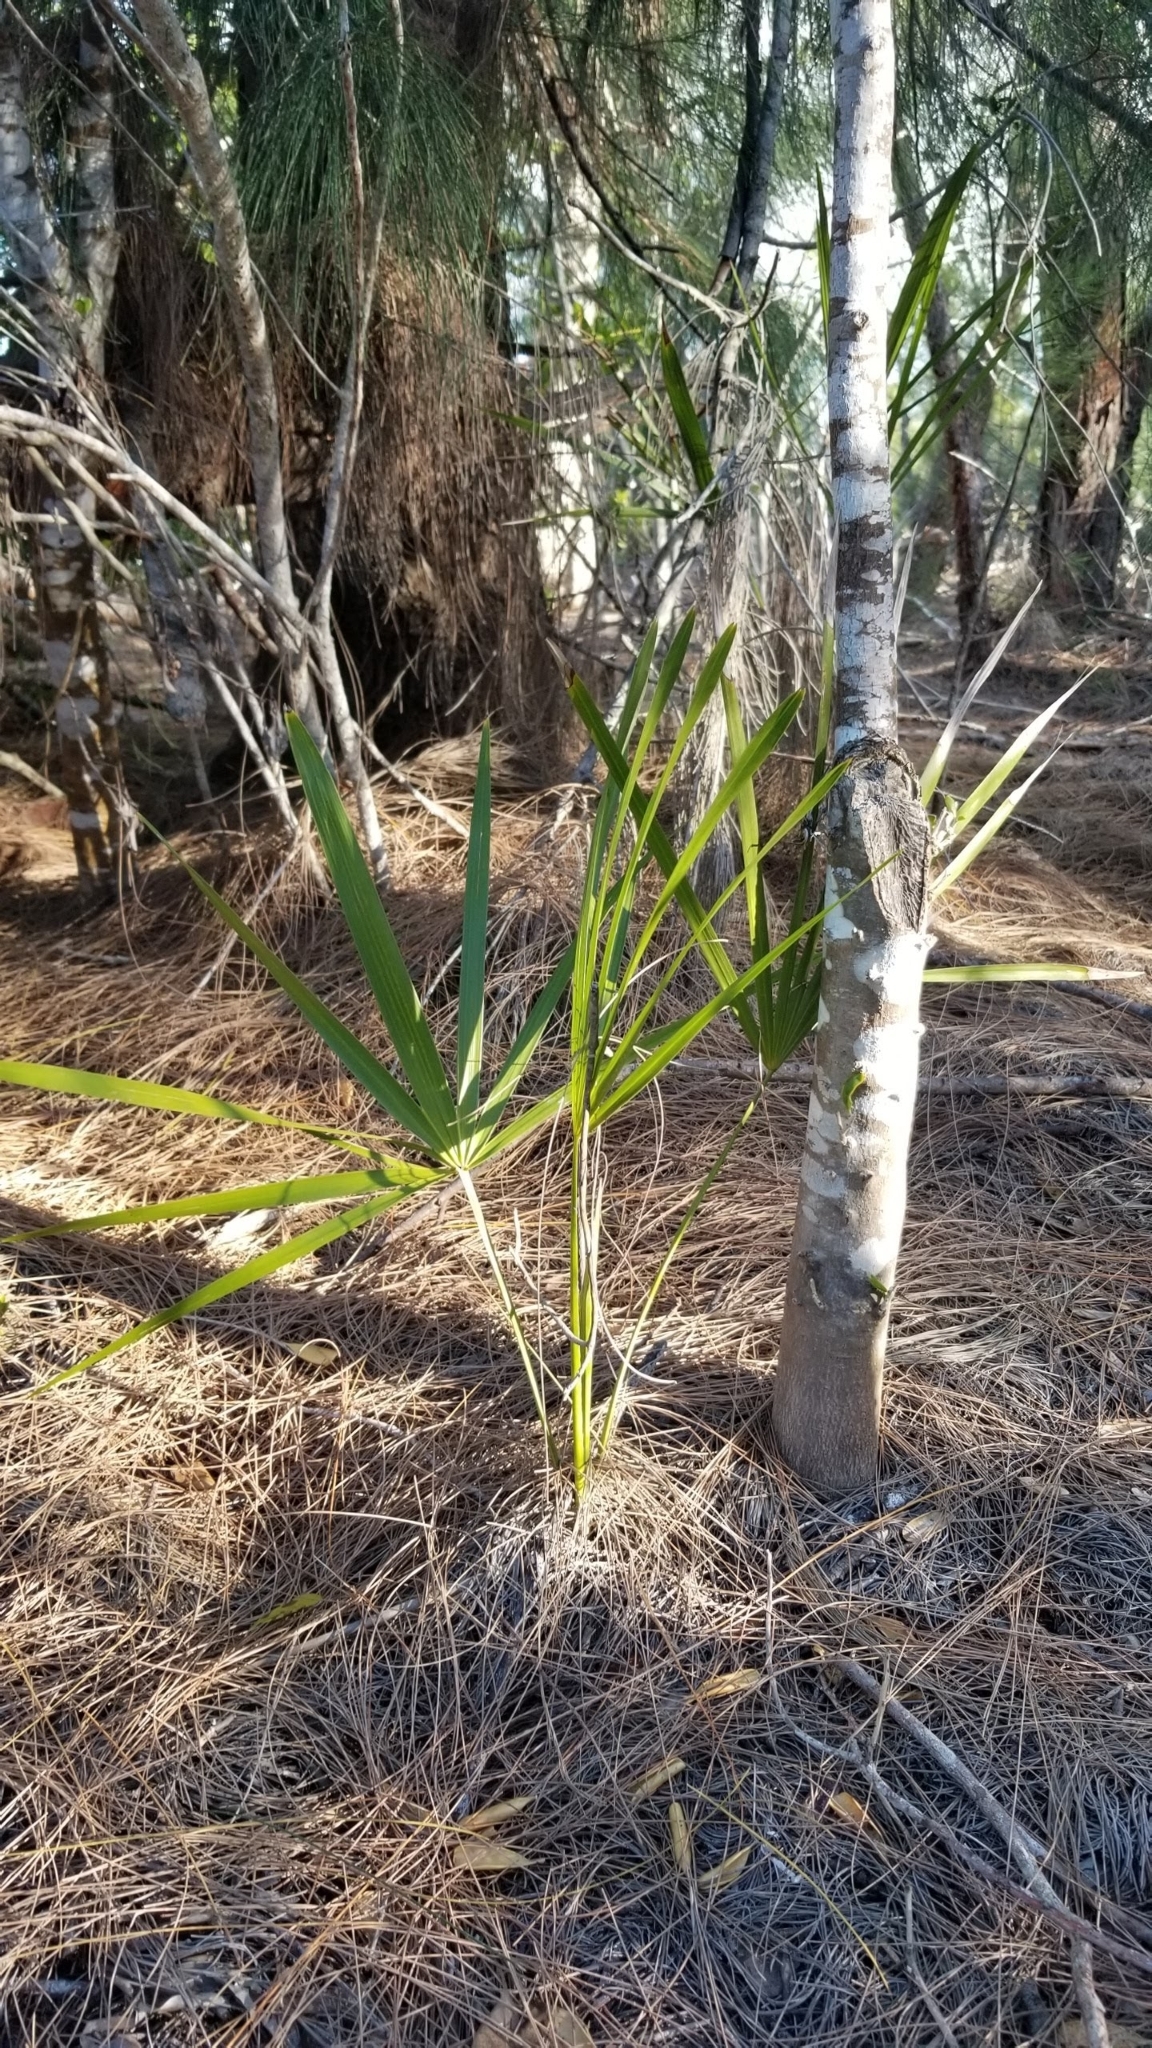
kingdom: Plantae
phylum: Tracheophyta
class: Liliopsida
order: Arecales
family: Arecaceae
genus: Serenoa
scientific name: Serenoa repens
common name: Saw-palmetto
